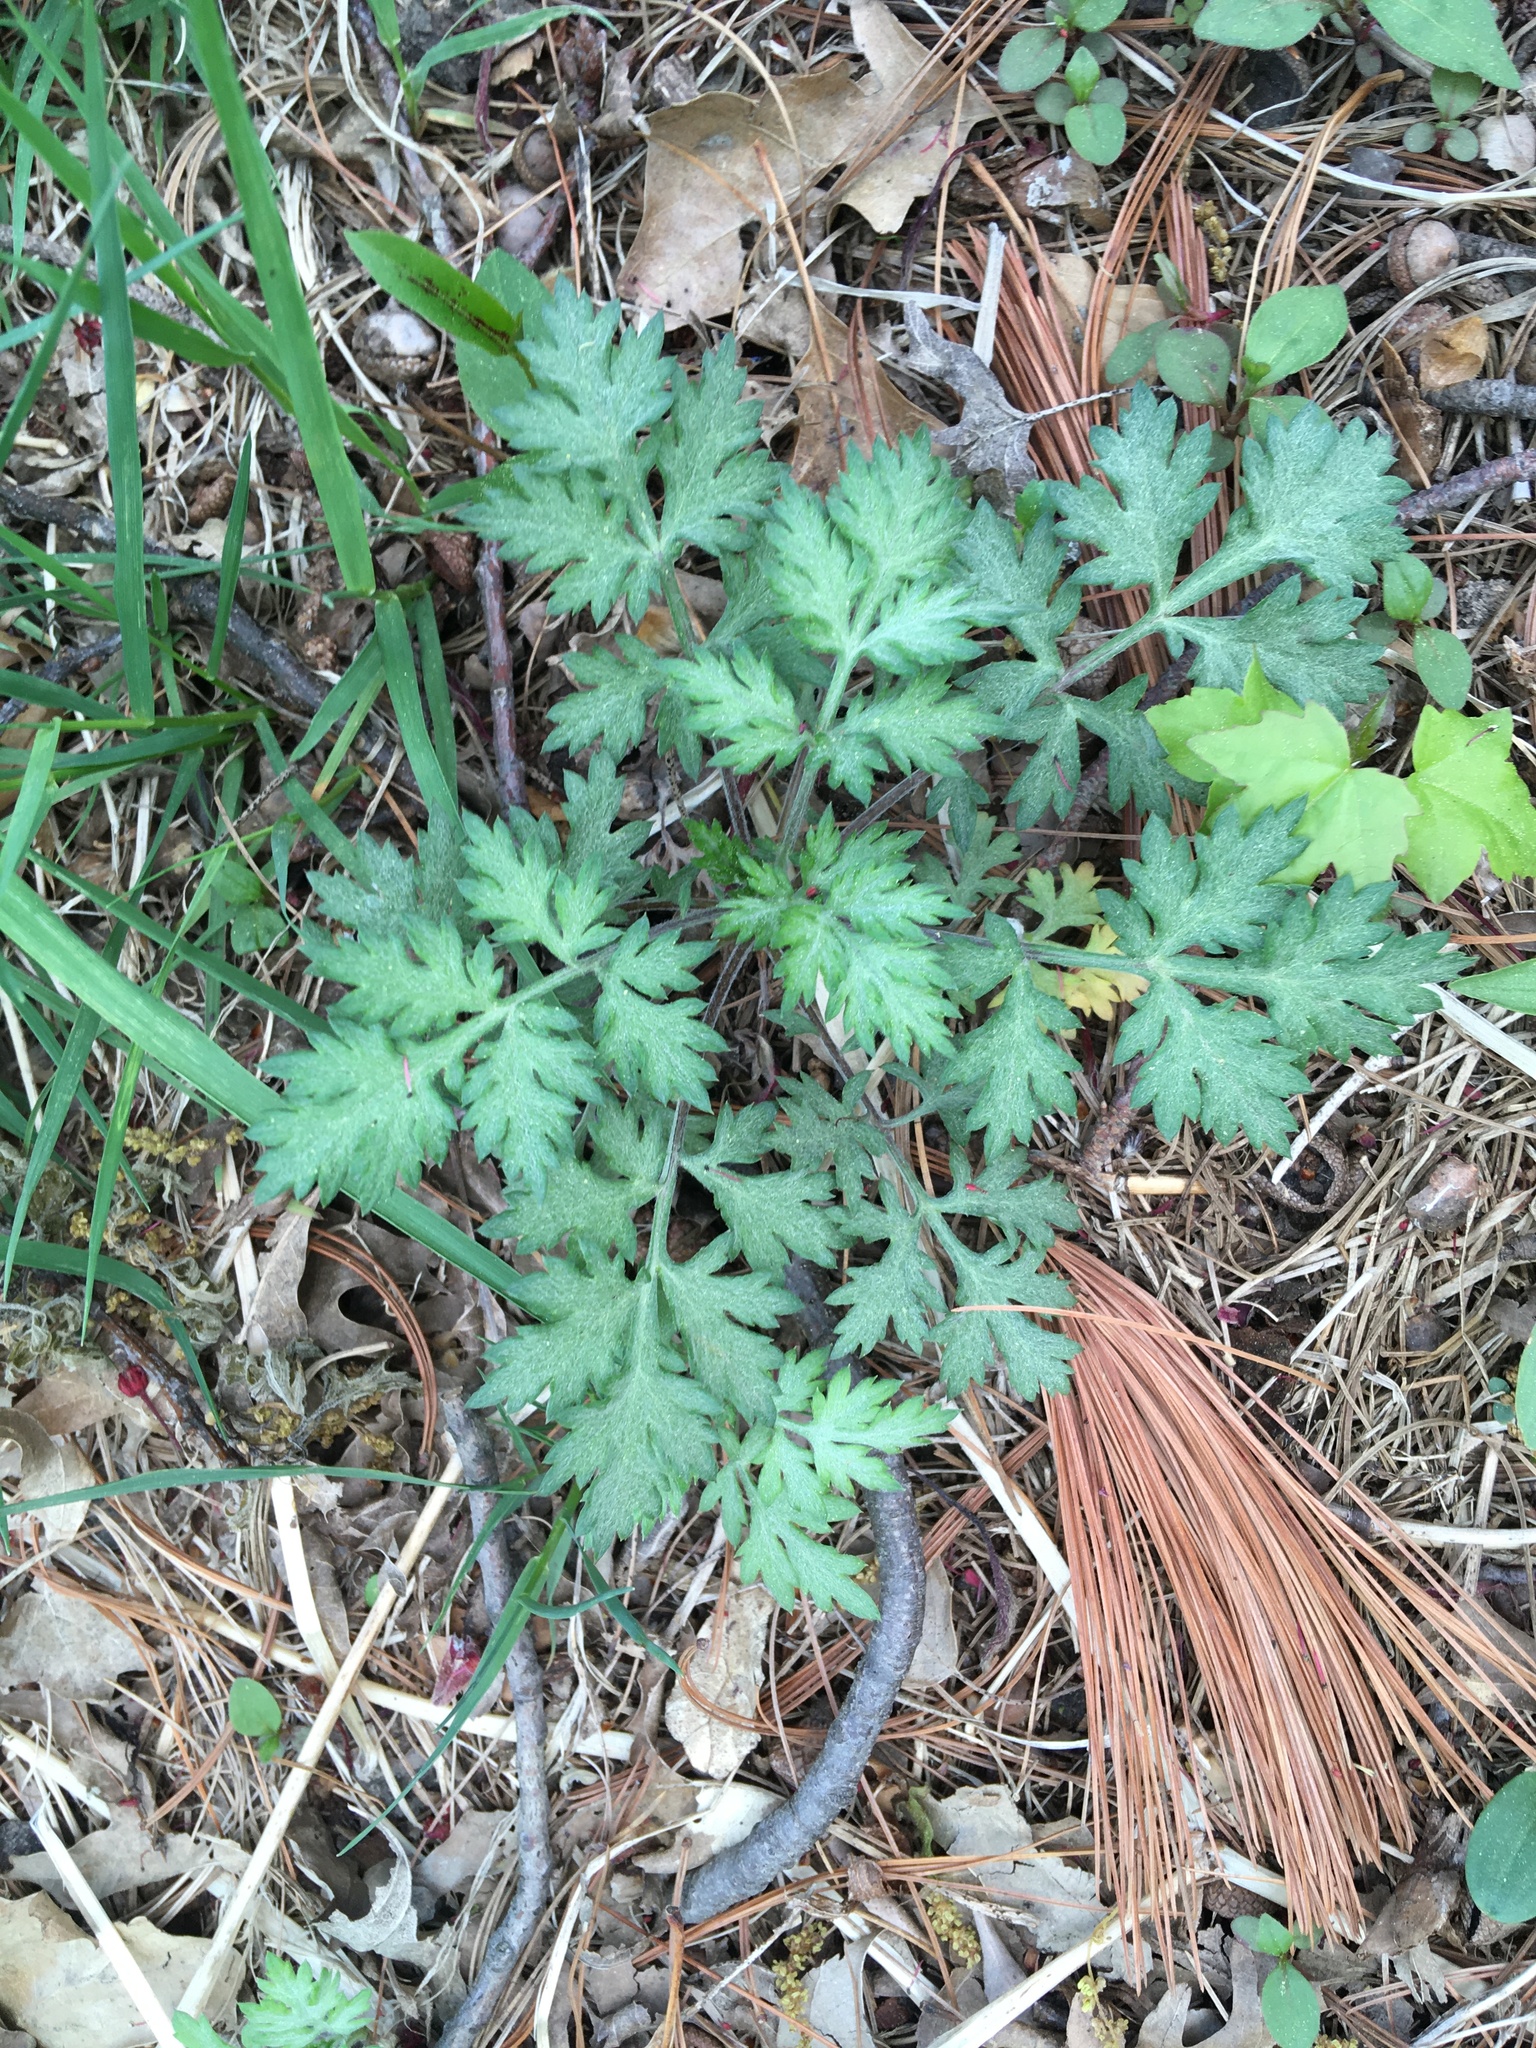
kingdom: Plantae
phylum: Tracheophyta
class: Magnoliopsida
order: Asterales
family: Asteraceae
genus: Artemisia
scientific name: Artemisia vulgaris
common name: Mugwort
